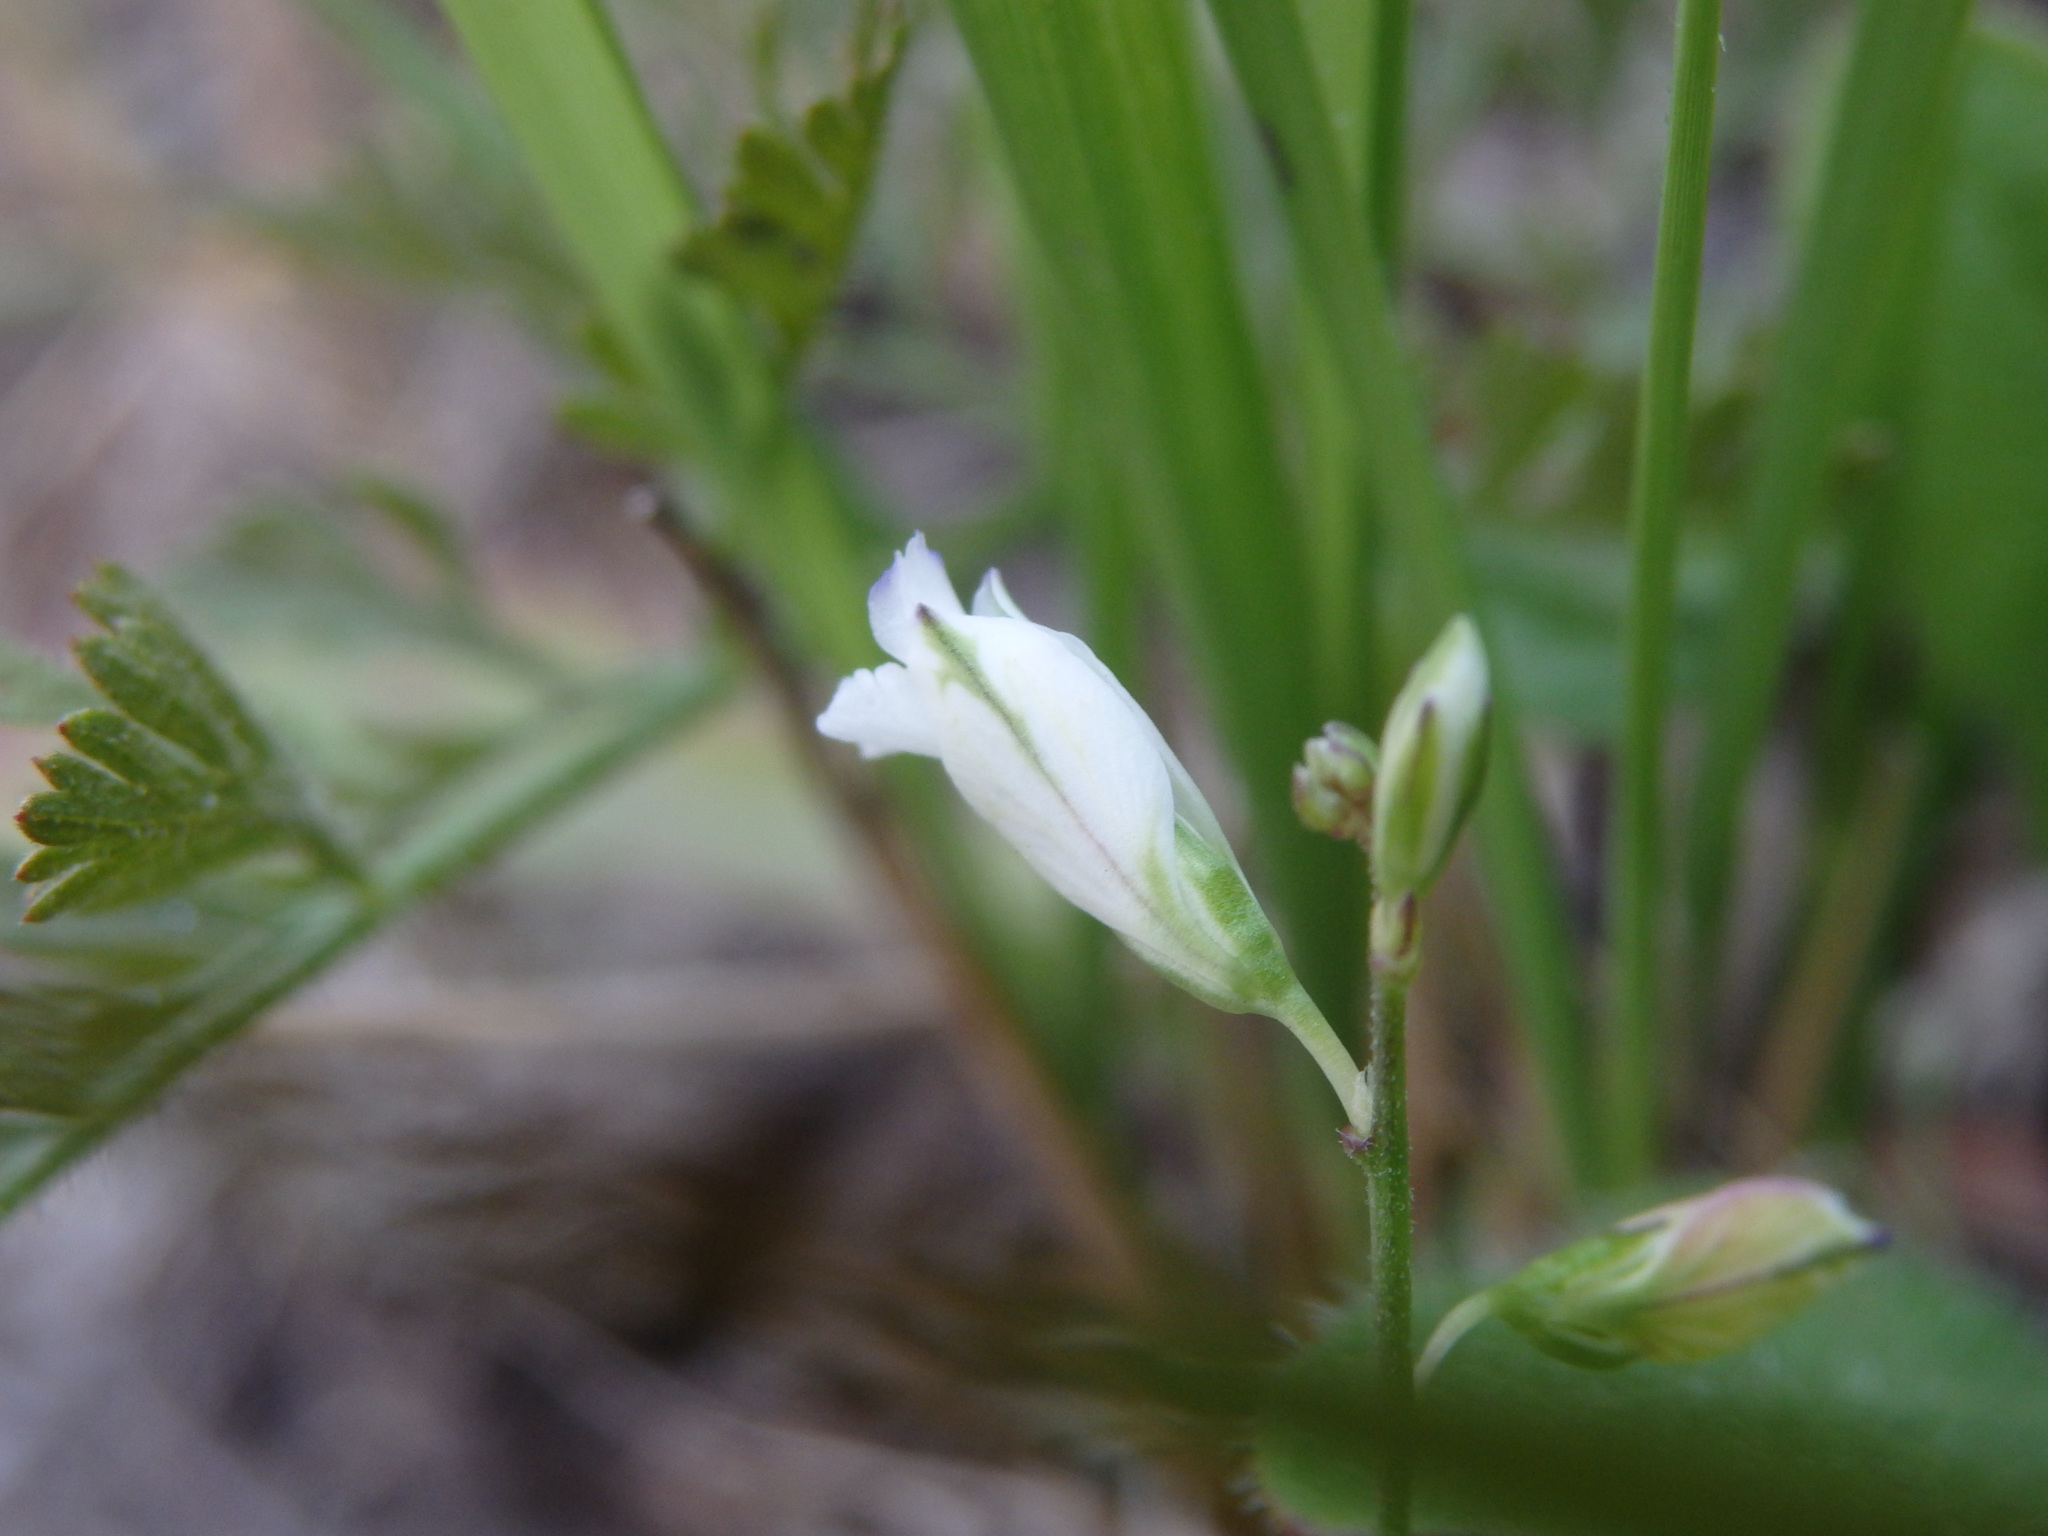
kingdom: Plantae
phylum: Tracheophyta
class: Magnoliopsida
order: Fabales
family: Polygalaceae
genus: Polygala
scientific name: Polygala monspeliaca
